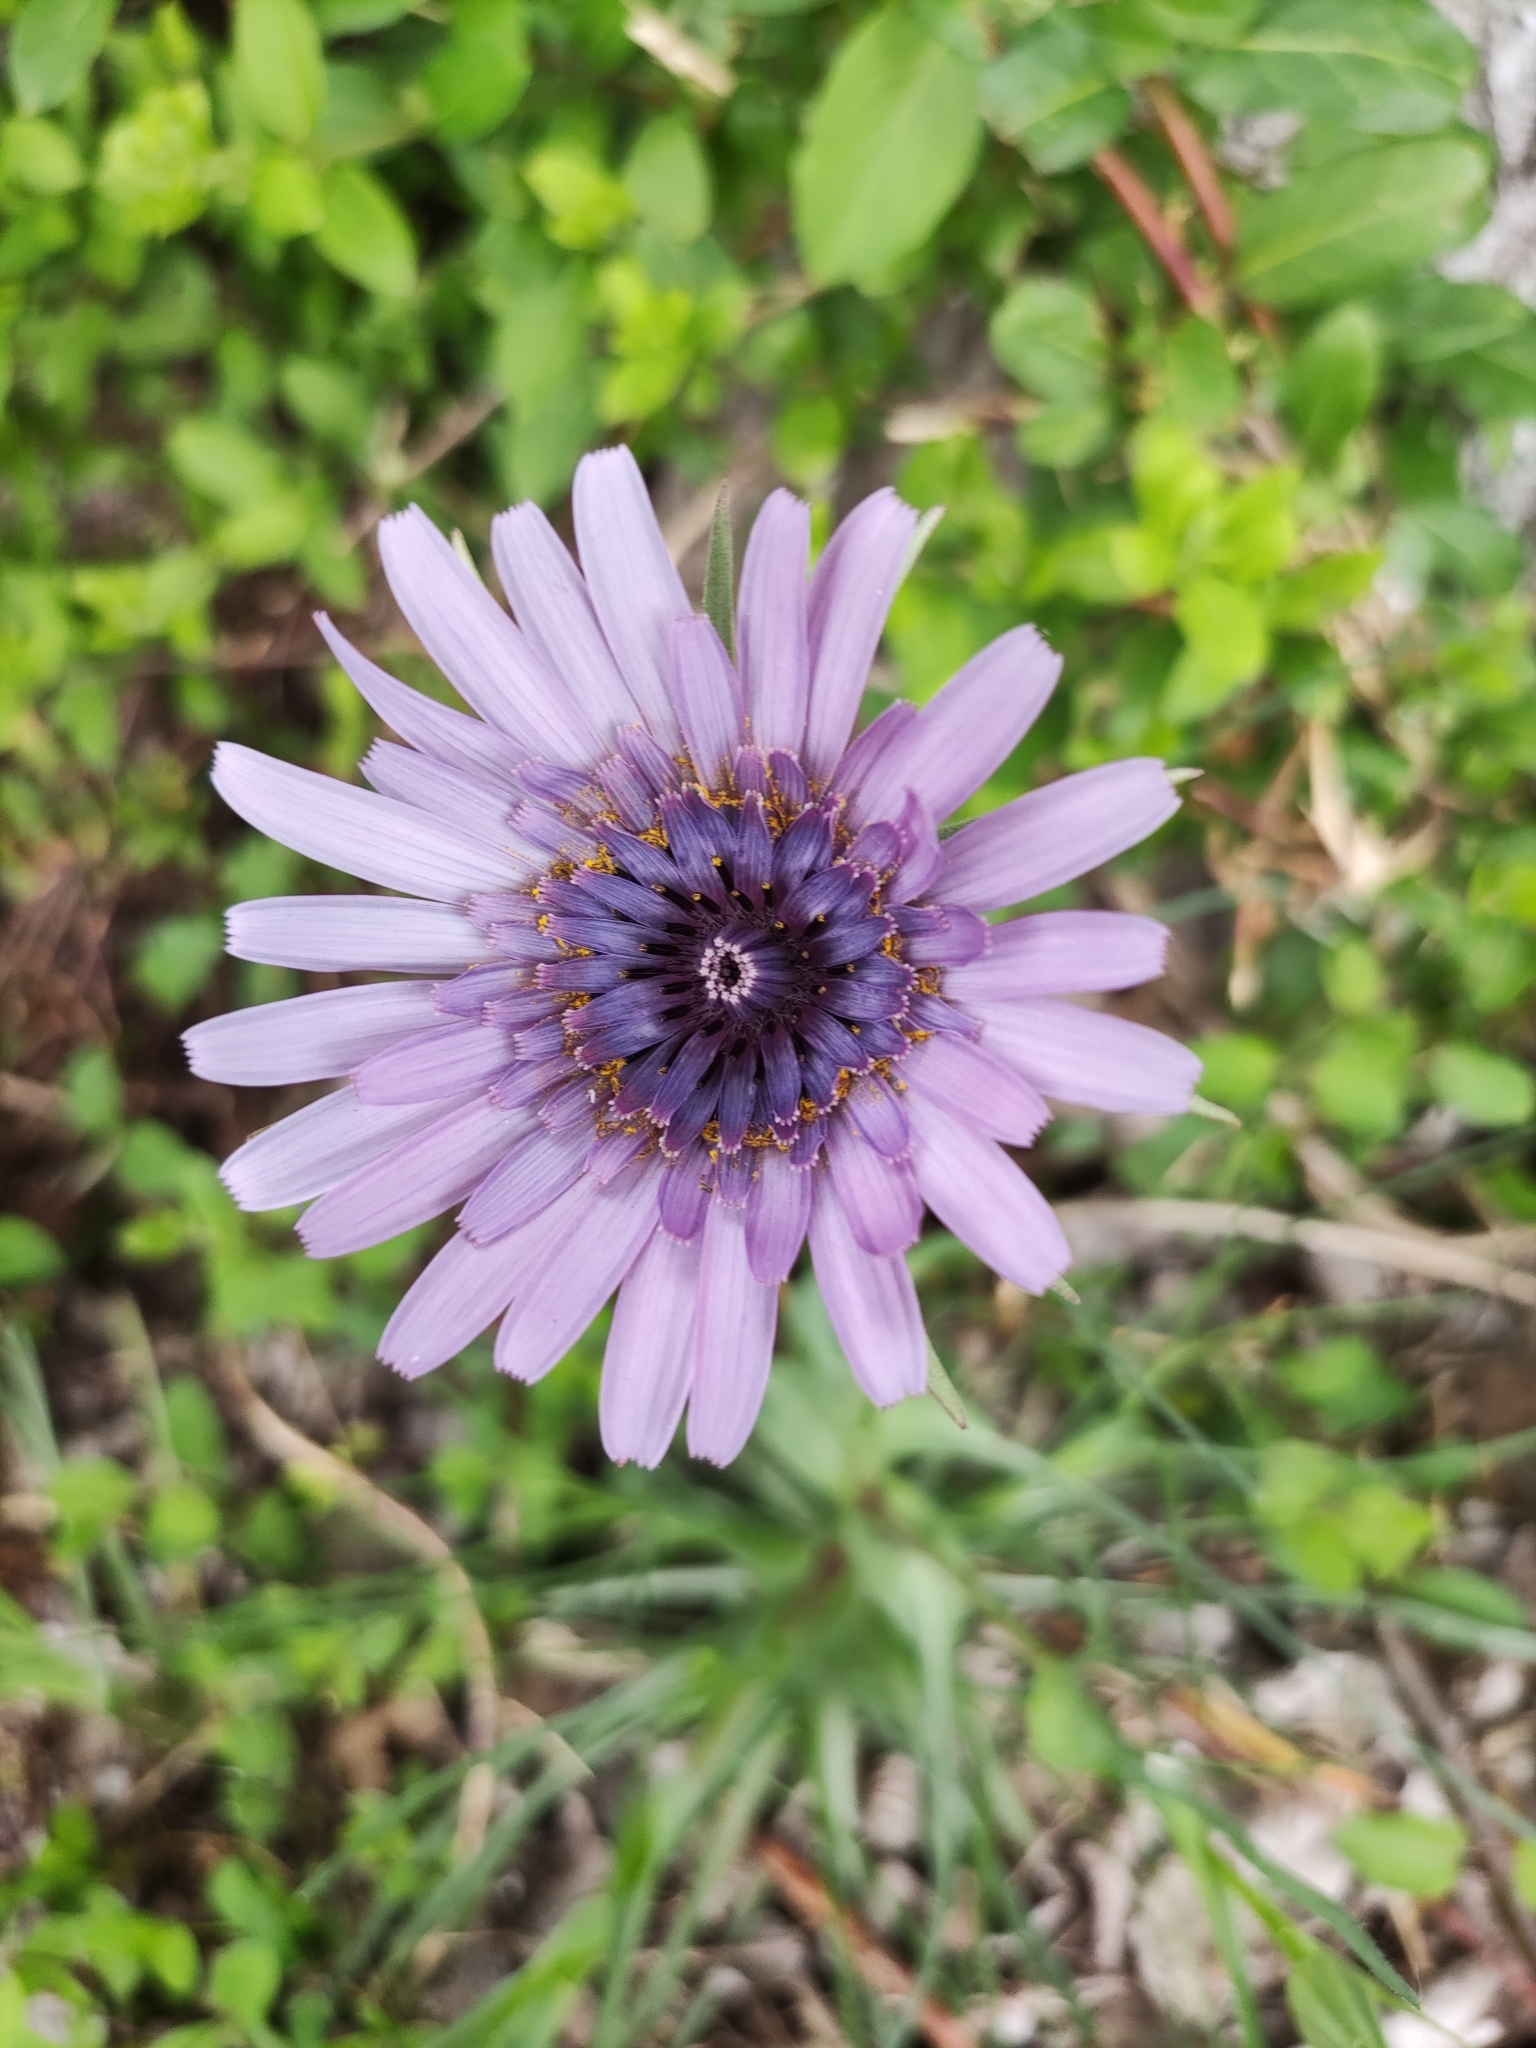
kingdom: Plantae
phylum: Tracheophyta
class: Magnoliopsida
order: Asterales
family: Asteraceae
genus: Tragopogon
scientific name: Tragopogon porrifolius
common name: Salsify
